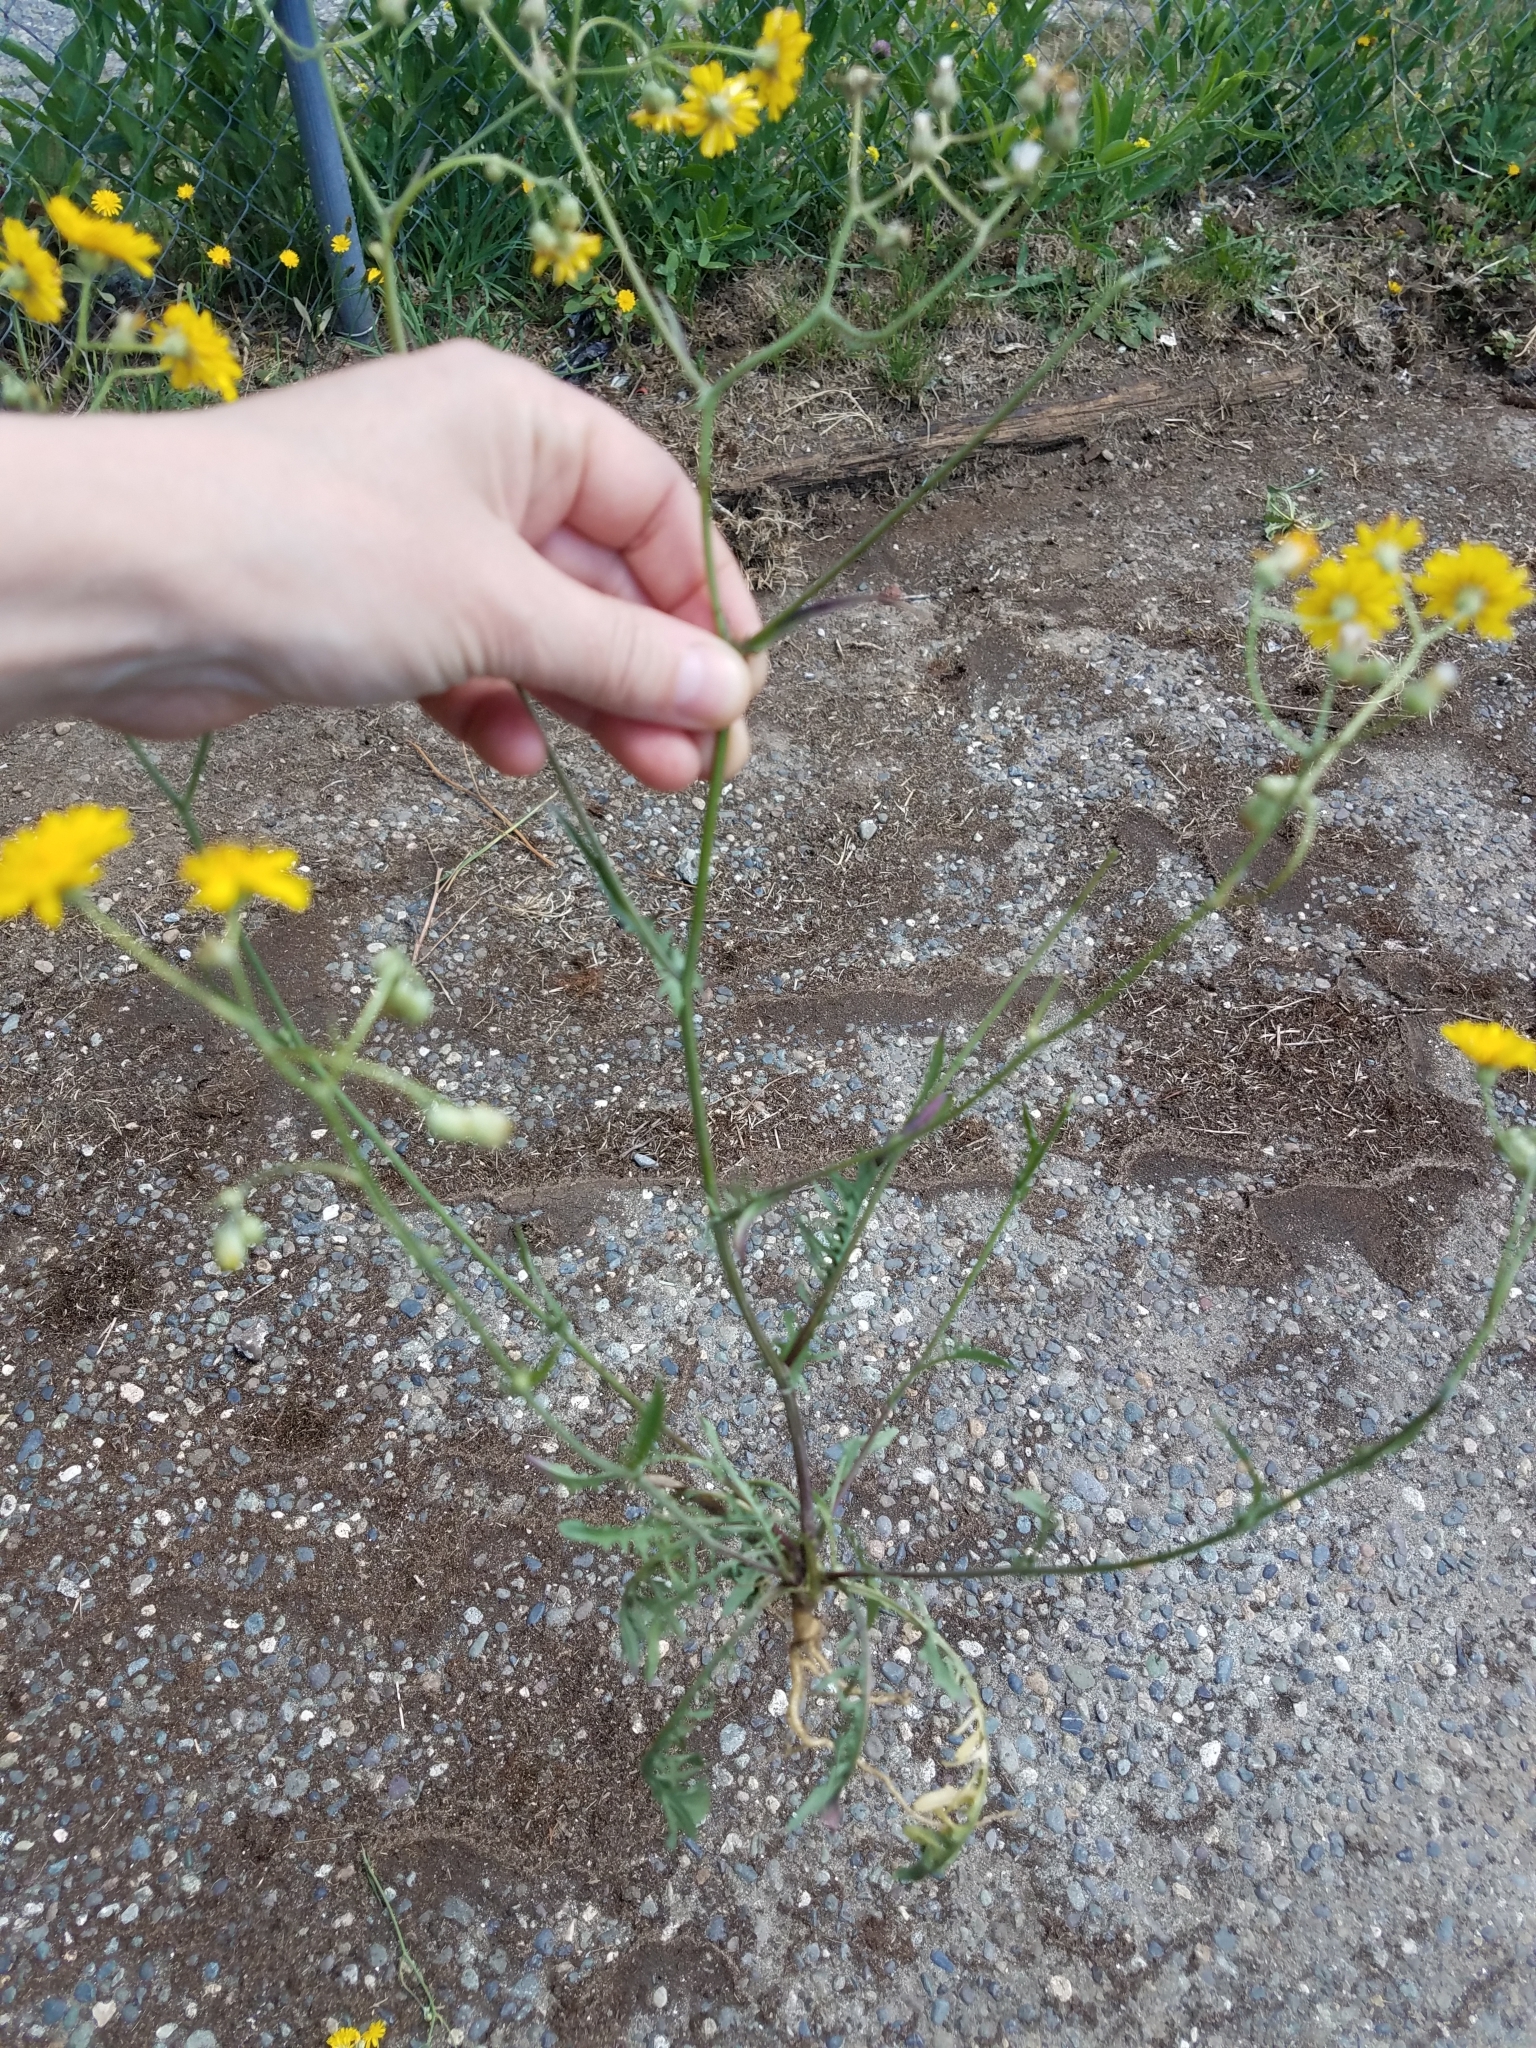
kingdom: Plantae
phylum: Tracheophyta
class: Magnoliopsida
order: Asterales
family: Asteraceae
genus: Crepis
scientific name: Crepis capillaris
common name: Smooth hawksbeard
